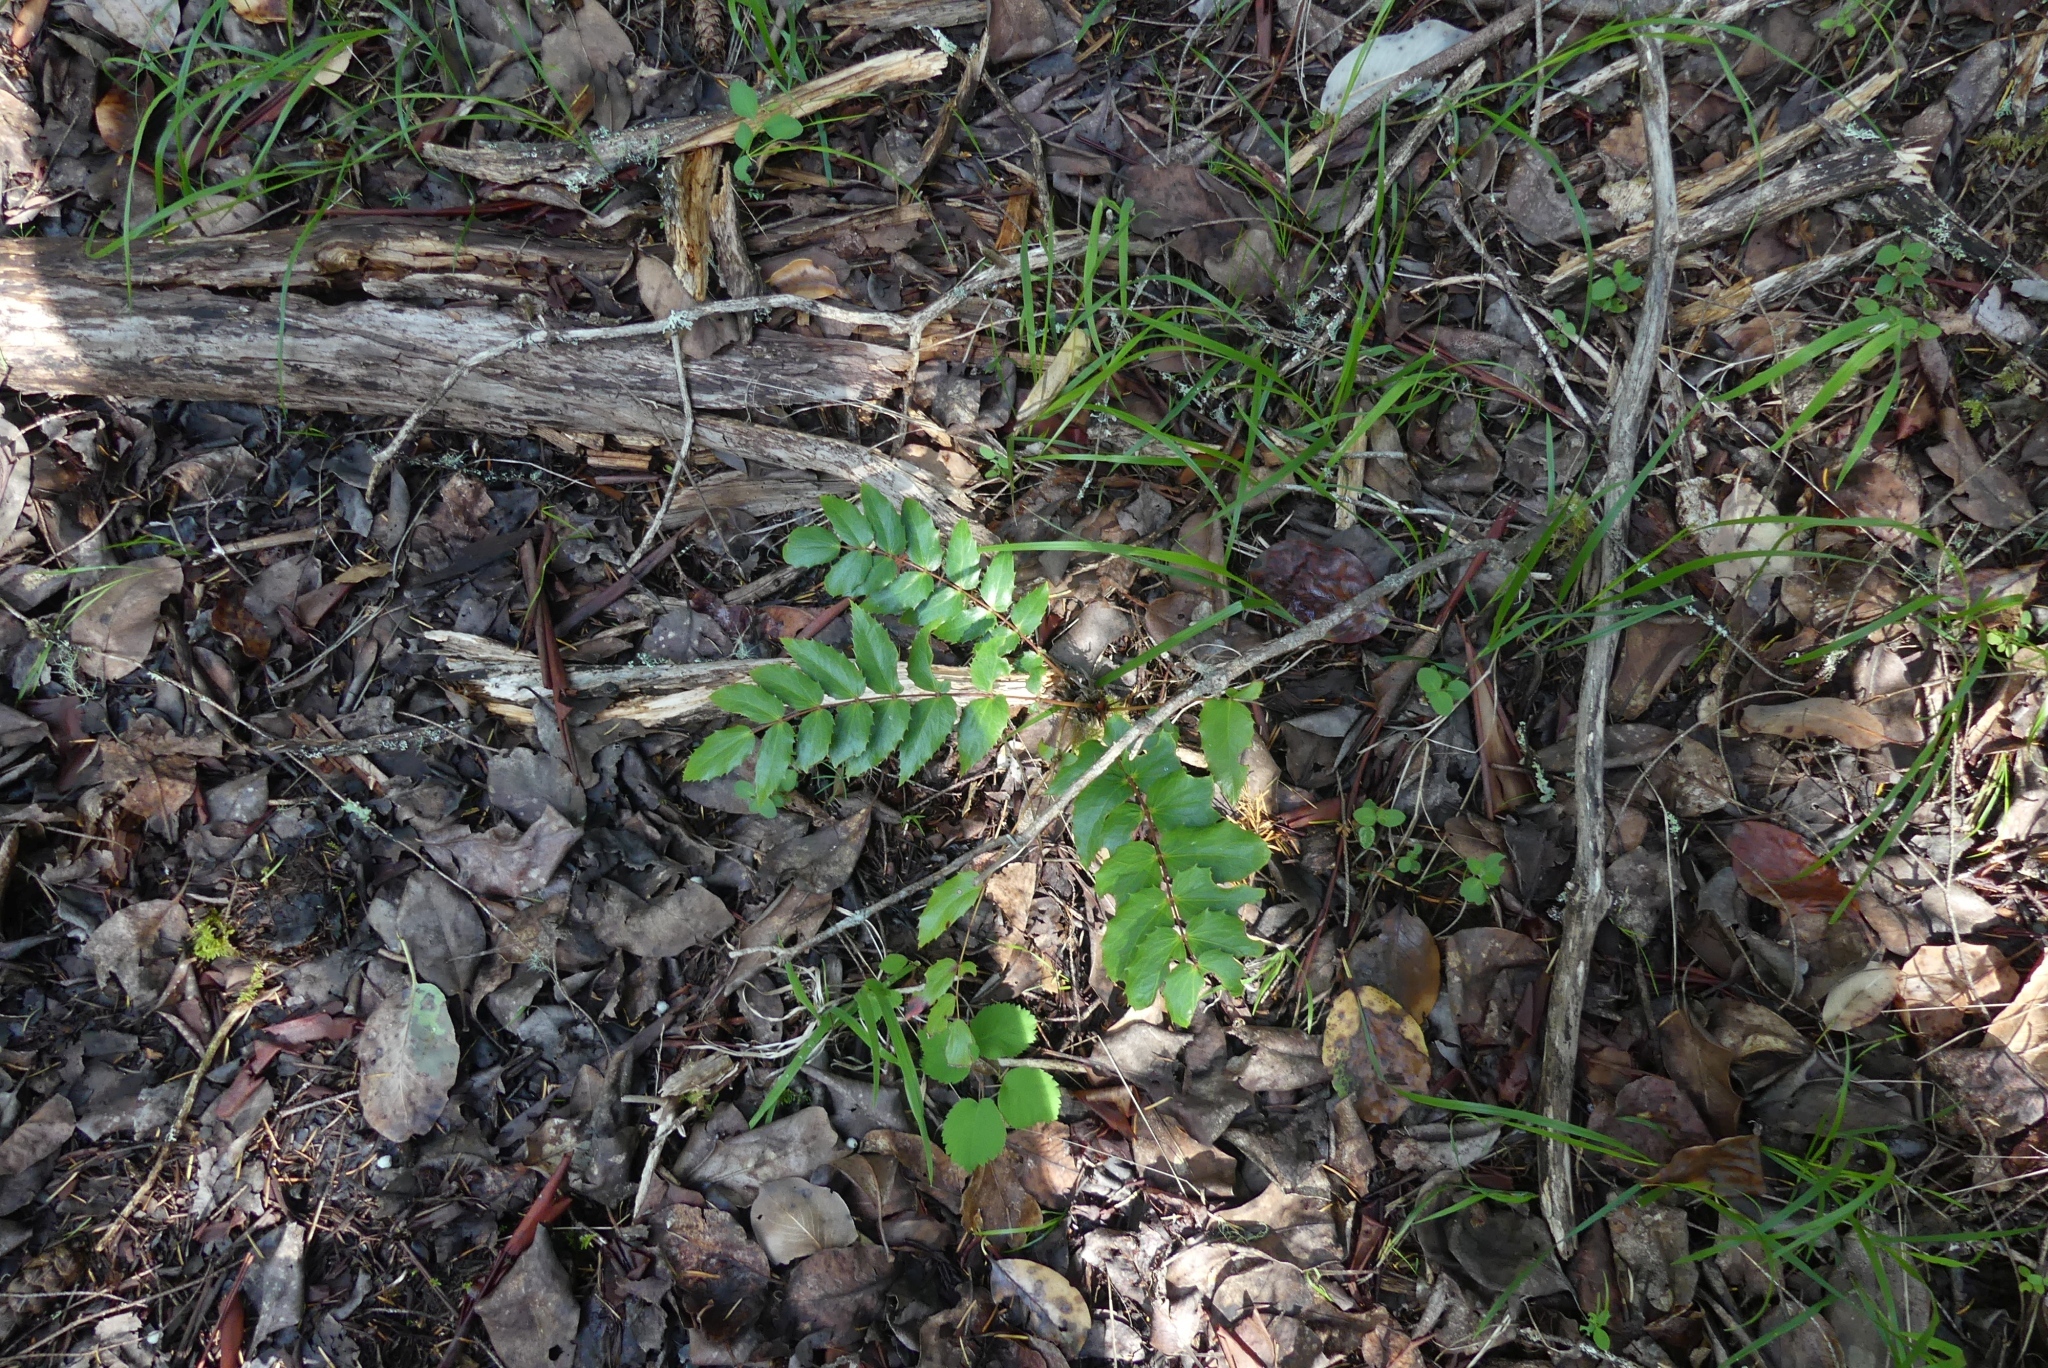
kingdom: Plantae
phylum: Tracheophyta
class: Magnoliopsida
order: Ranunculales
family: Berberidaceae
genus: Mahonia
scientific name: Mahonia nervosa
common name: Cascade oregon-grape
